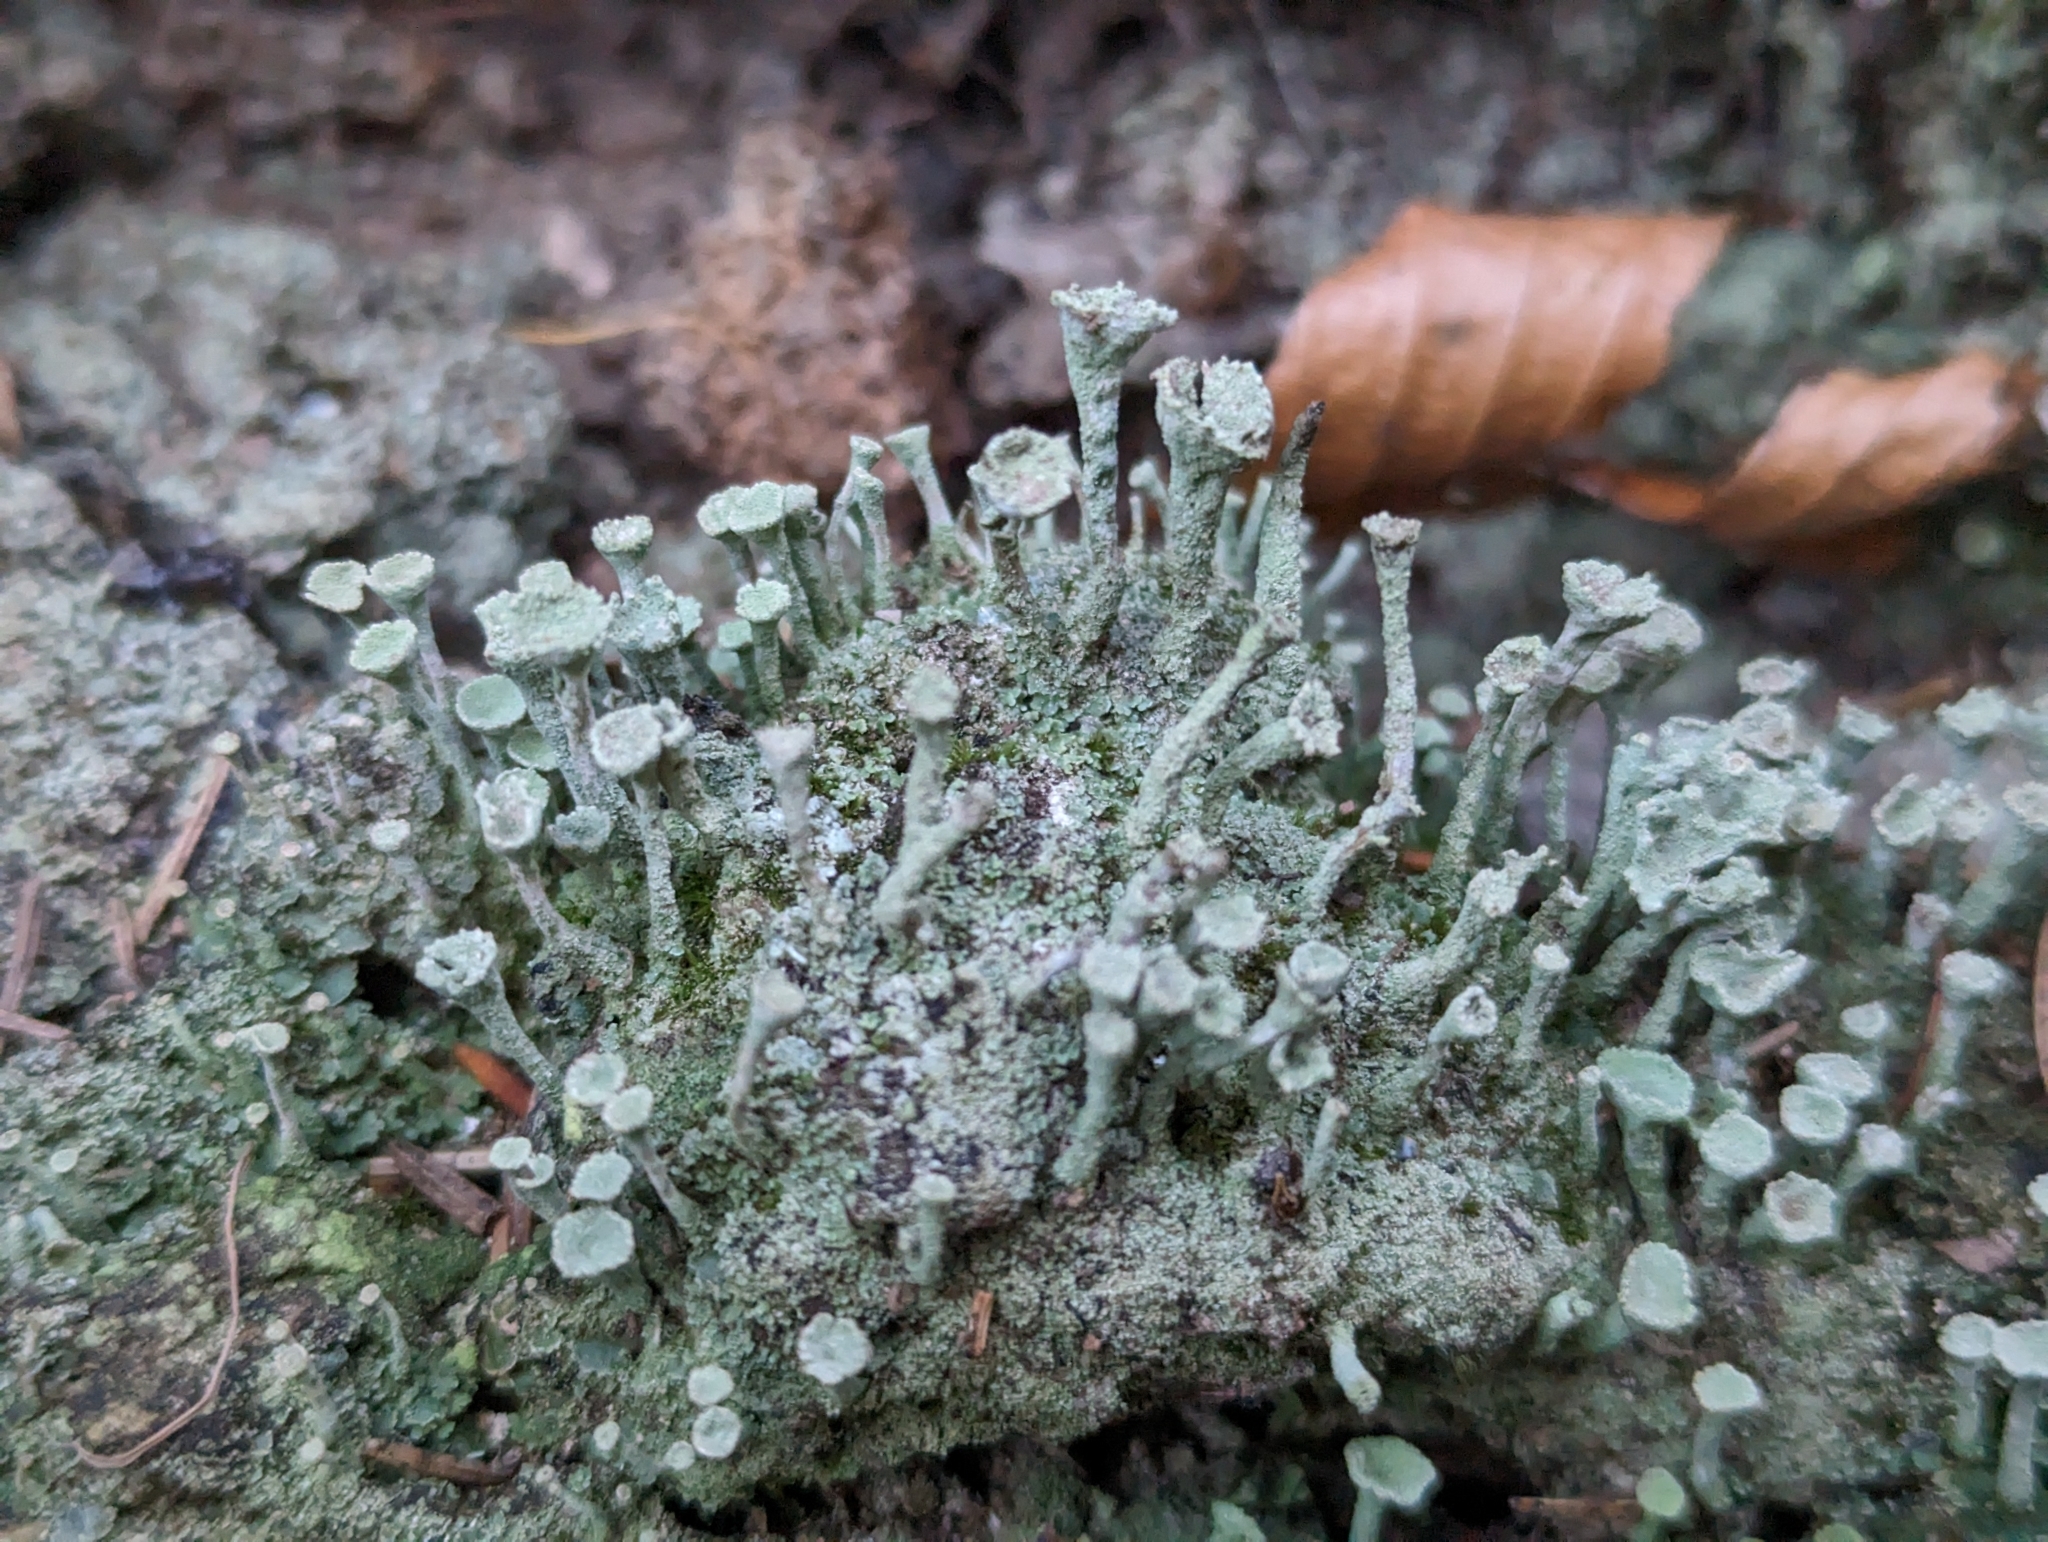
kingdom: Fungi
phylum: Ascomycota
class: Lecanoromycetes
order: Lecanorales
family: Cladoniaceae
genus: Cladonia
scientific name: Cladonia fimbriata
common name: Powdered trumpet lichen
